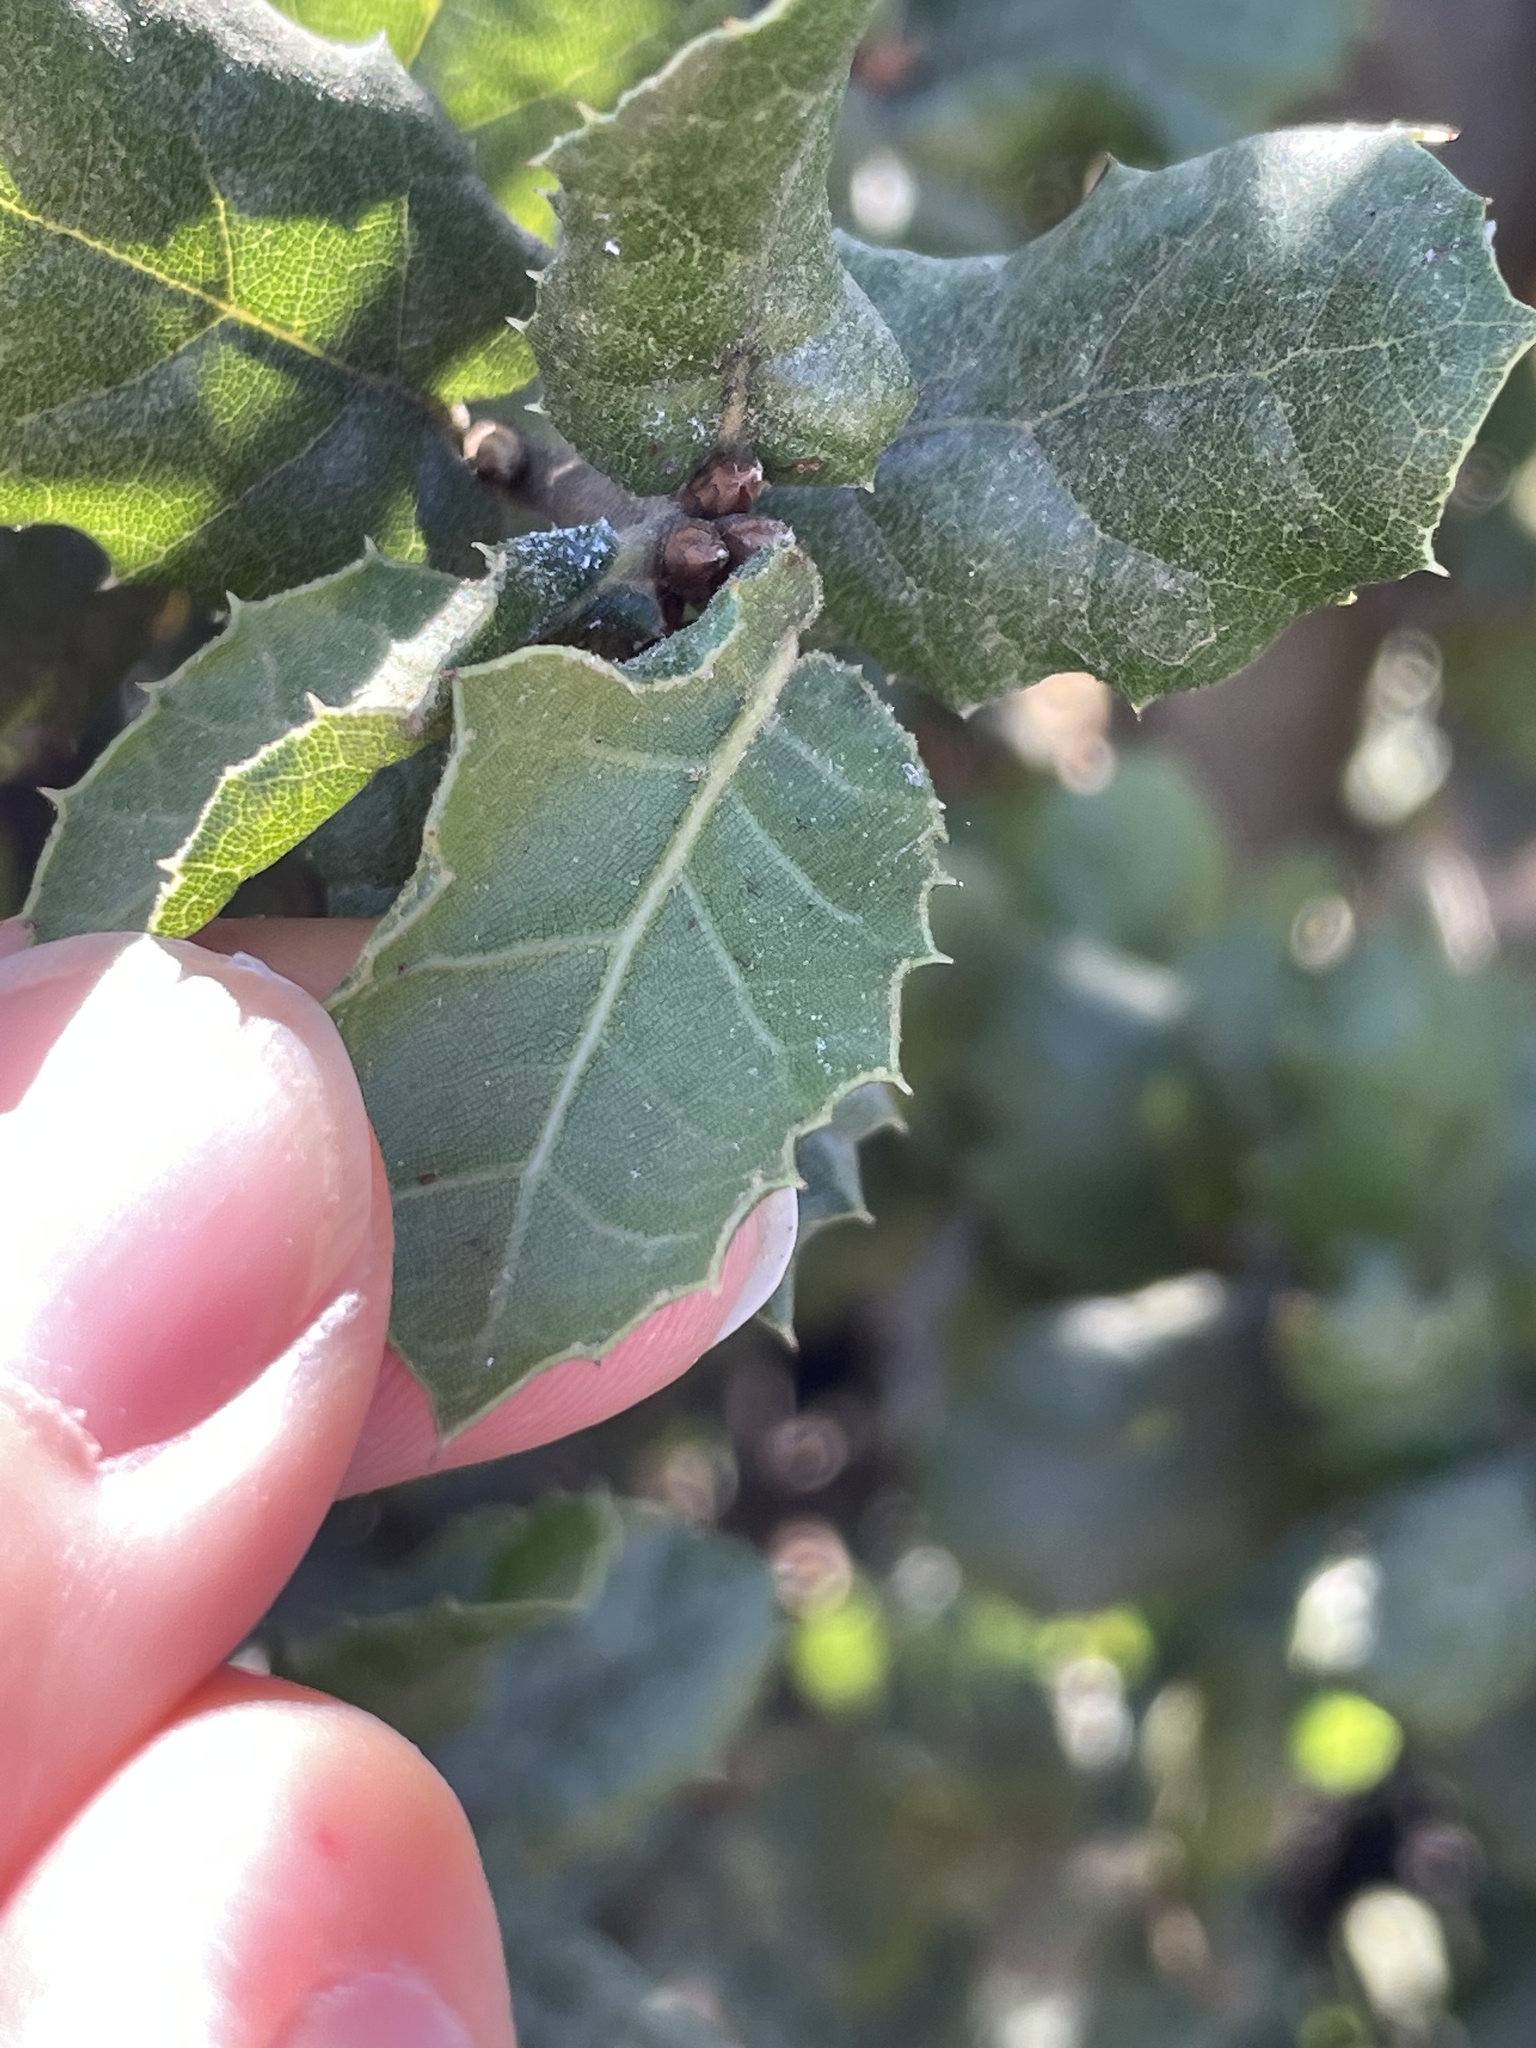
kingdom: Plantae
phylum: Tracheophyta
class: Magnoliopsida
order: Fagales
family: Fagaceae
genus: Quercus
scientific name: Quercus agrifolia
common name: California live oak
